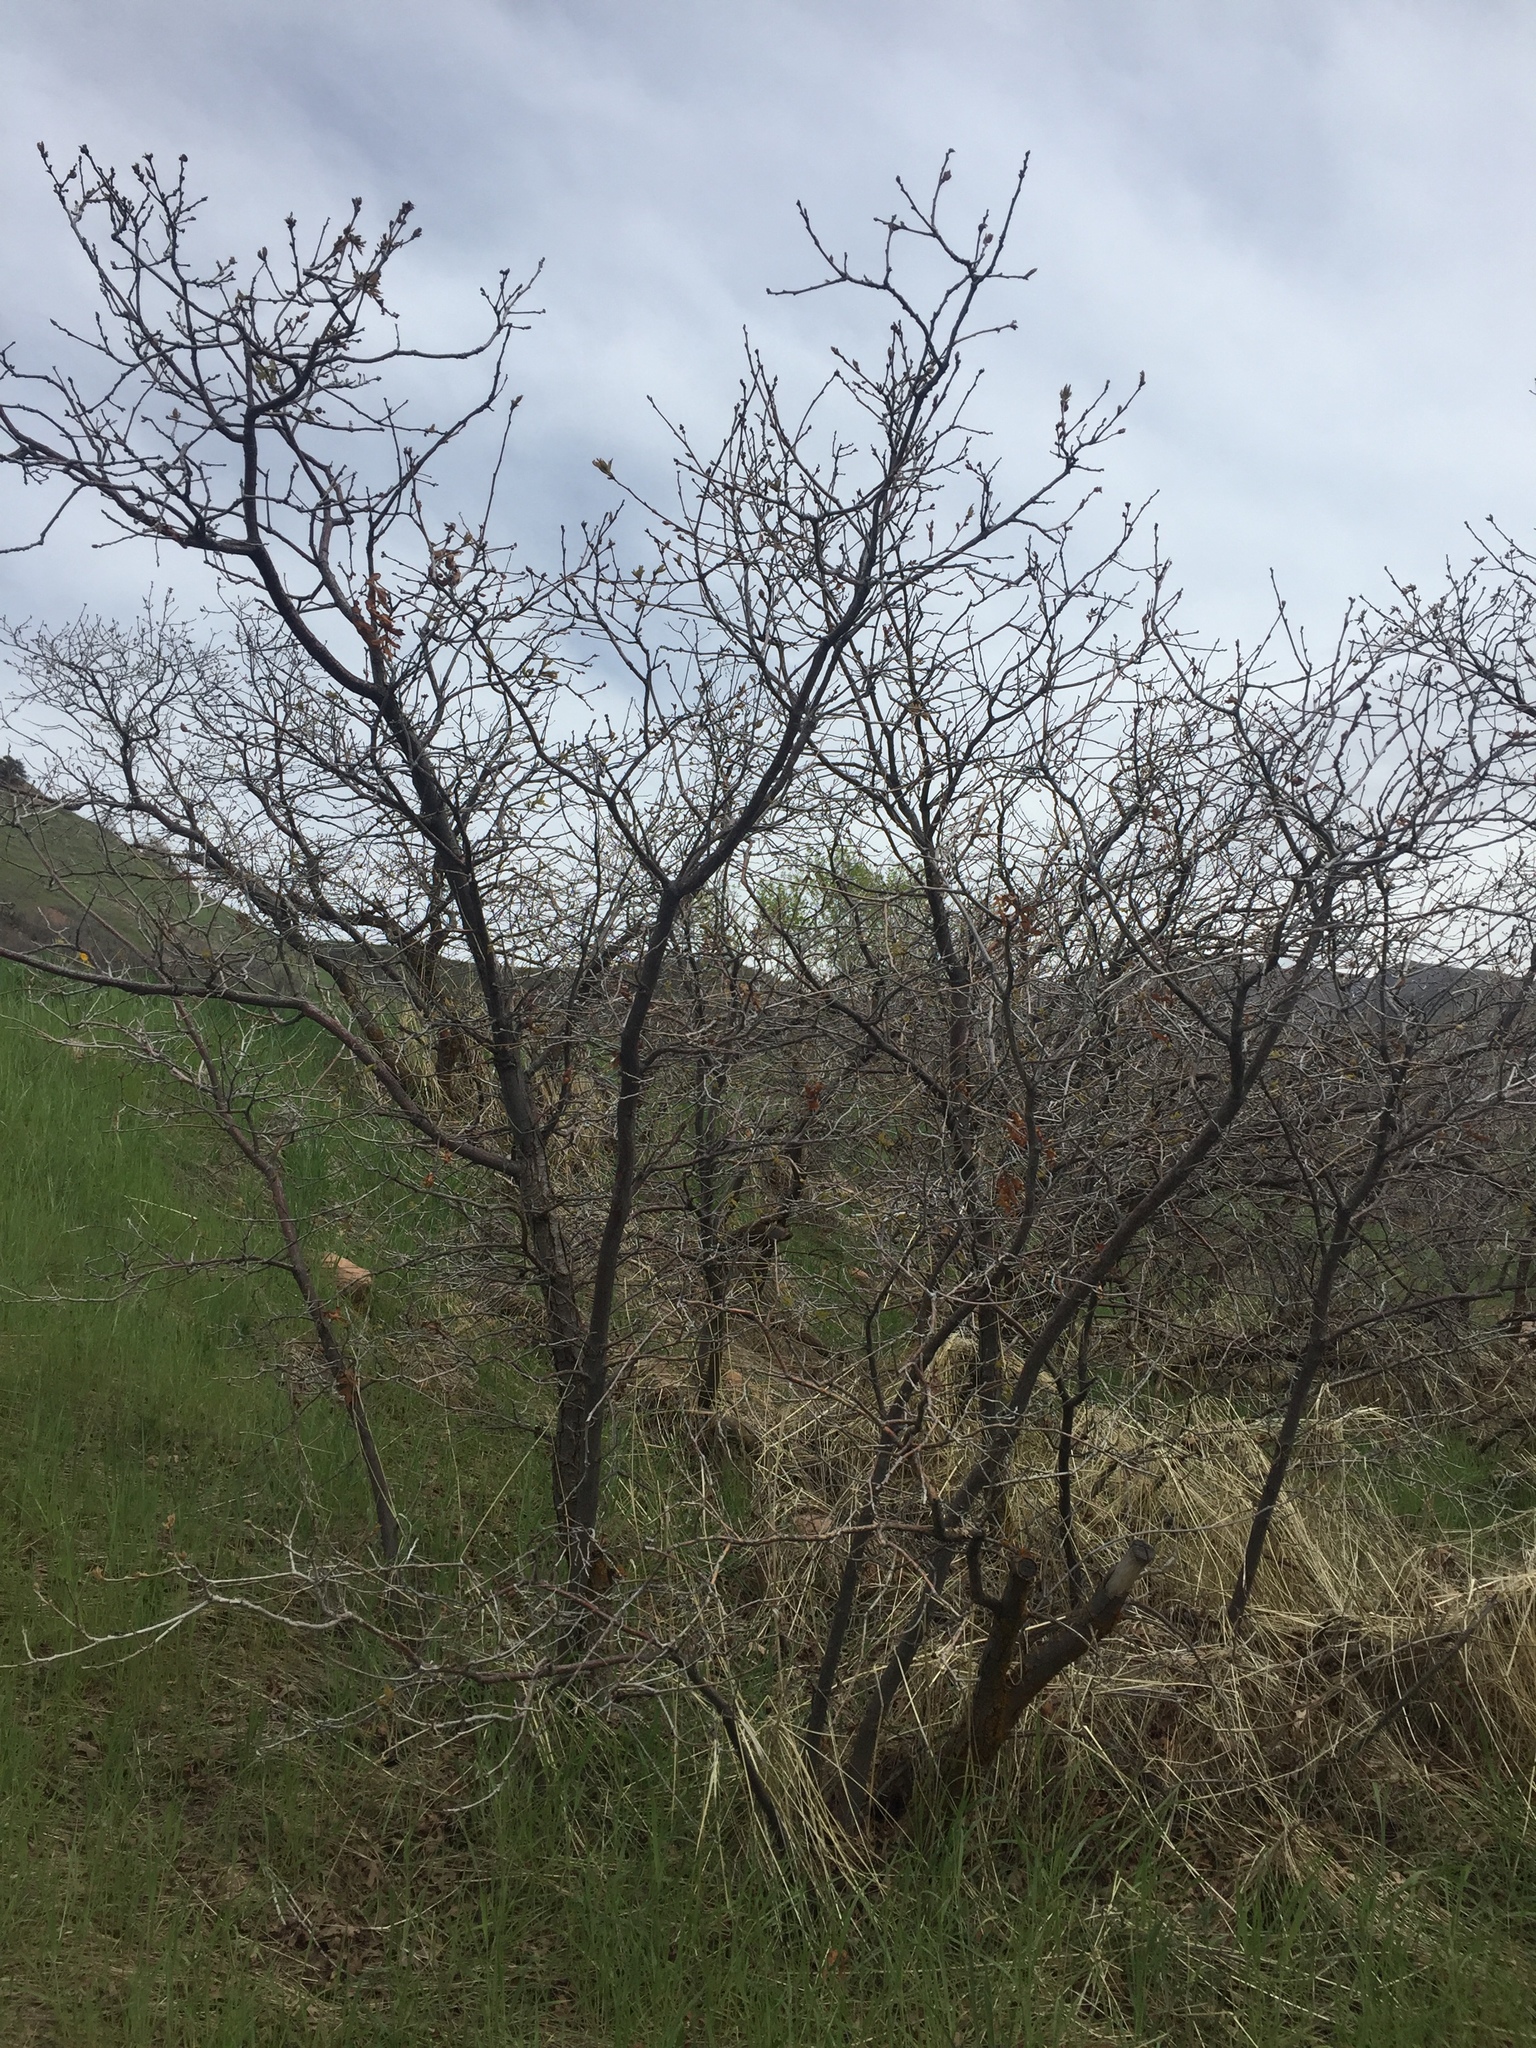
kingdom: Plantae
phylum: Tracheophyta
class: Magnoliopsida
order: Fagales
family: Fagaceae
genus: Quercus
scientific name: Quercus gambelii
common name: Gambel oak
